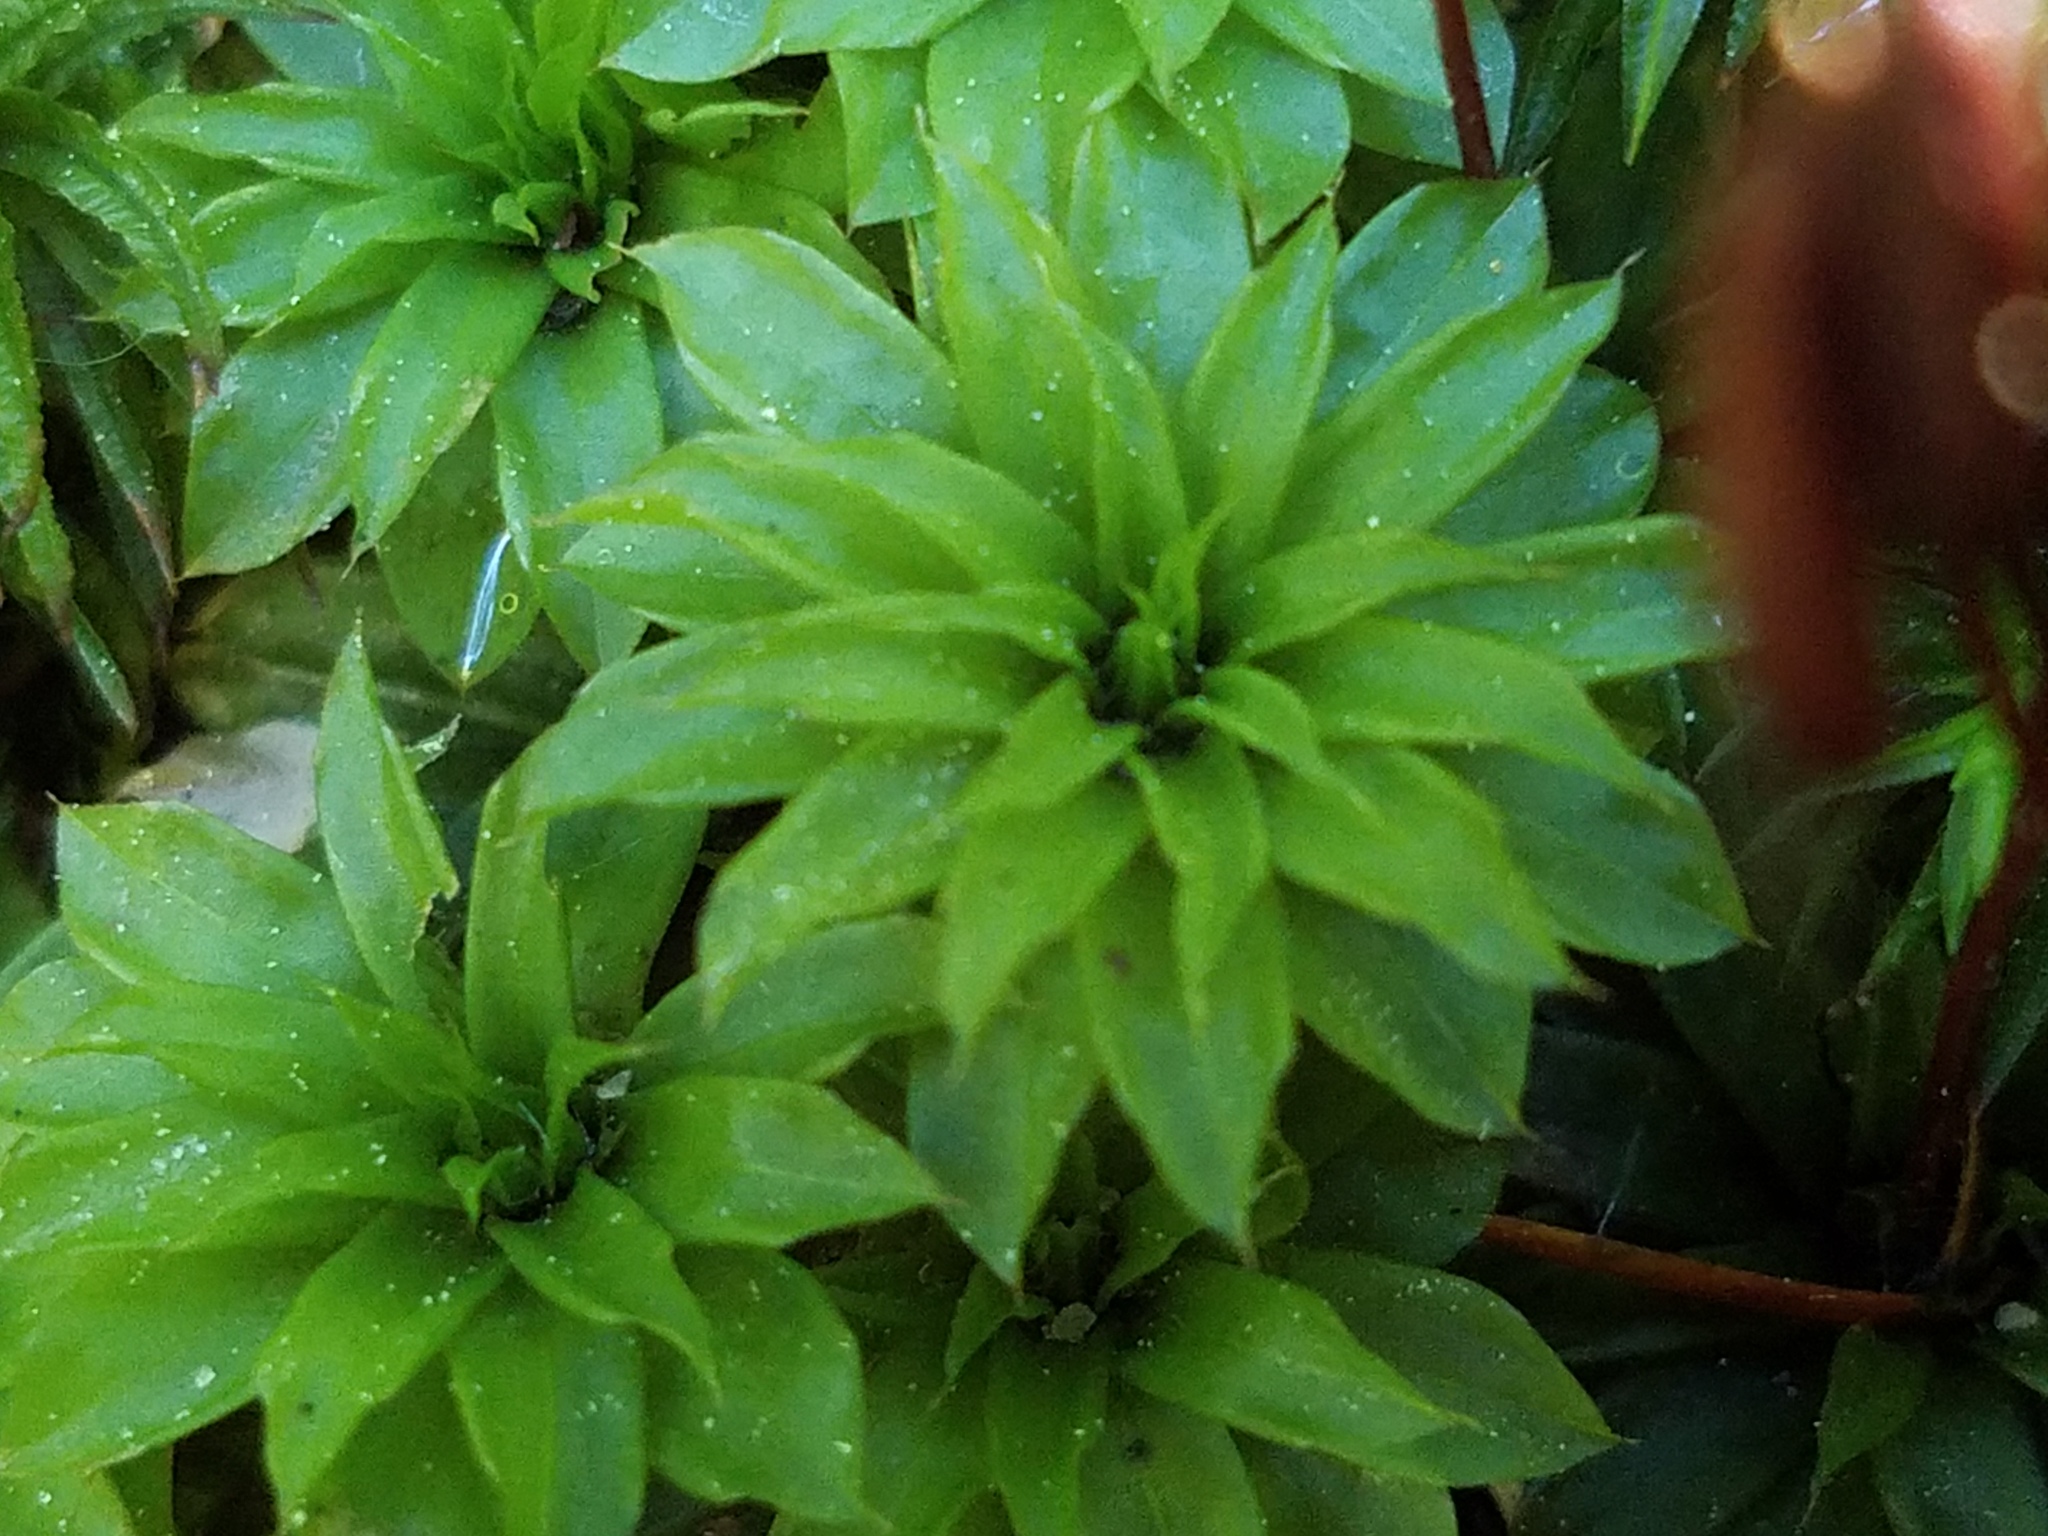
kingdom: Plantae
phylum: Bryophyta
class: Bryopsida
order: Bryales
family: Bryaceae
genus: Rhodobryum
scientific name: Rhodobryum ontariense
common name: Ontario rhodobryum moss
